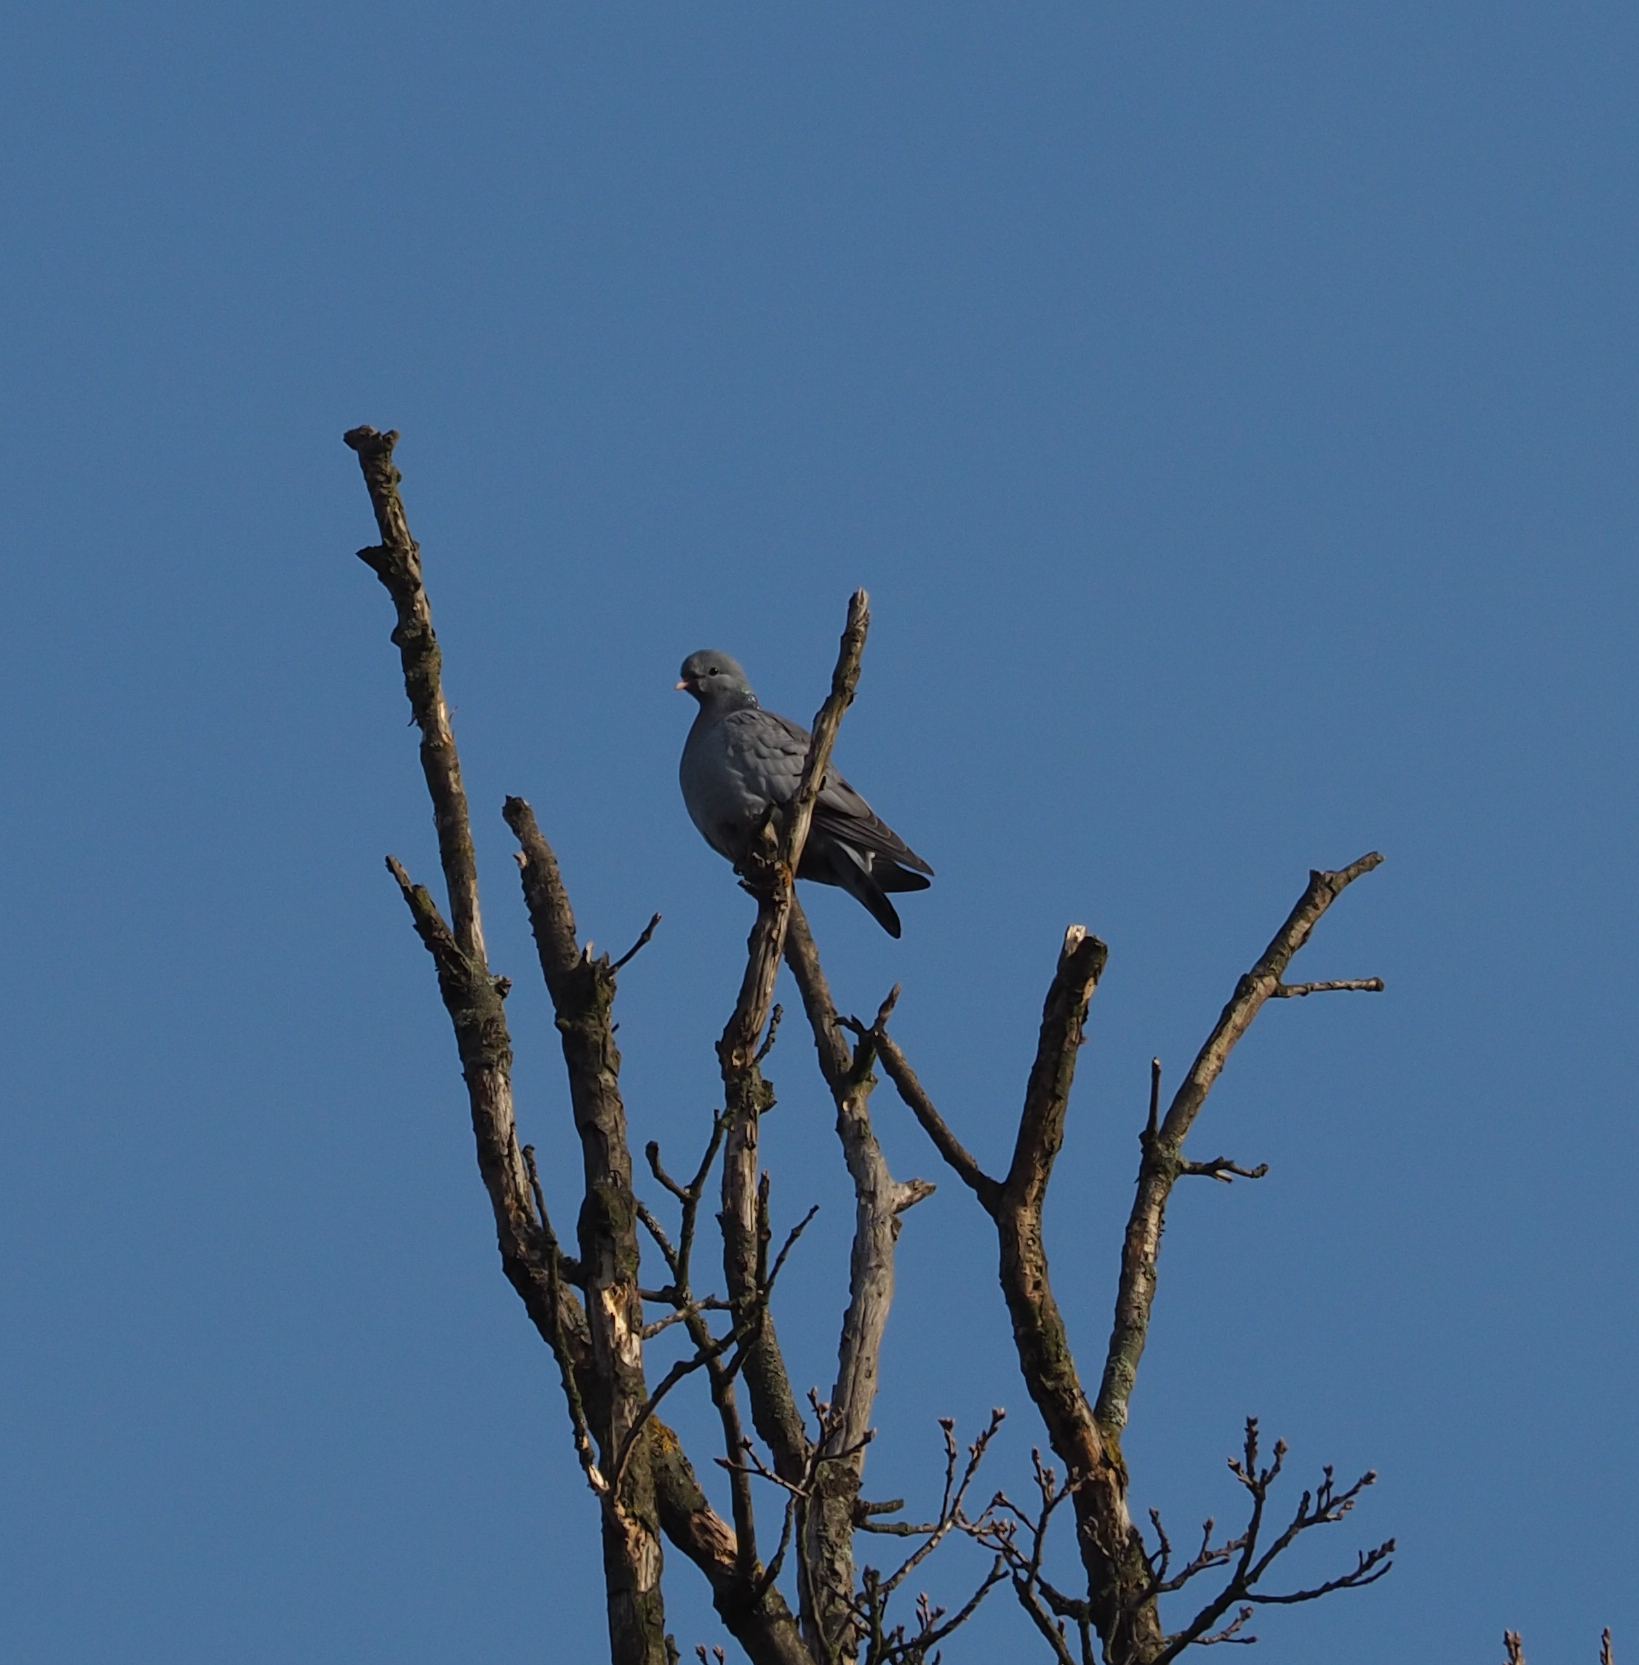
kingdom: Animalia
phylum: Chordata
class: Aves
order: Columbiformes
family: Columbidae
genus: Columba
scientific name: Columba oenas
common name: Stock dove
